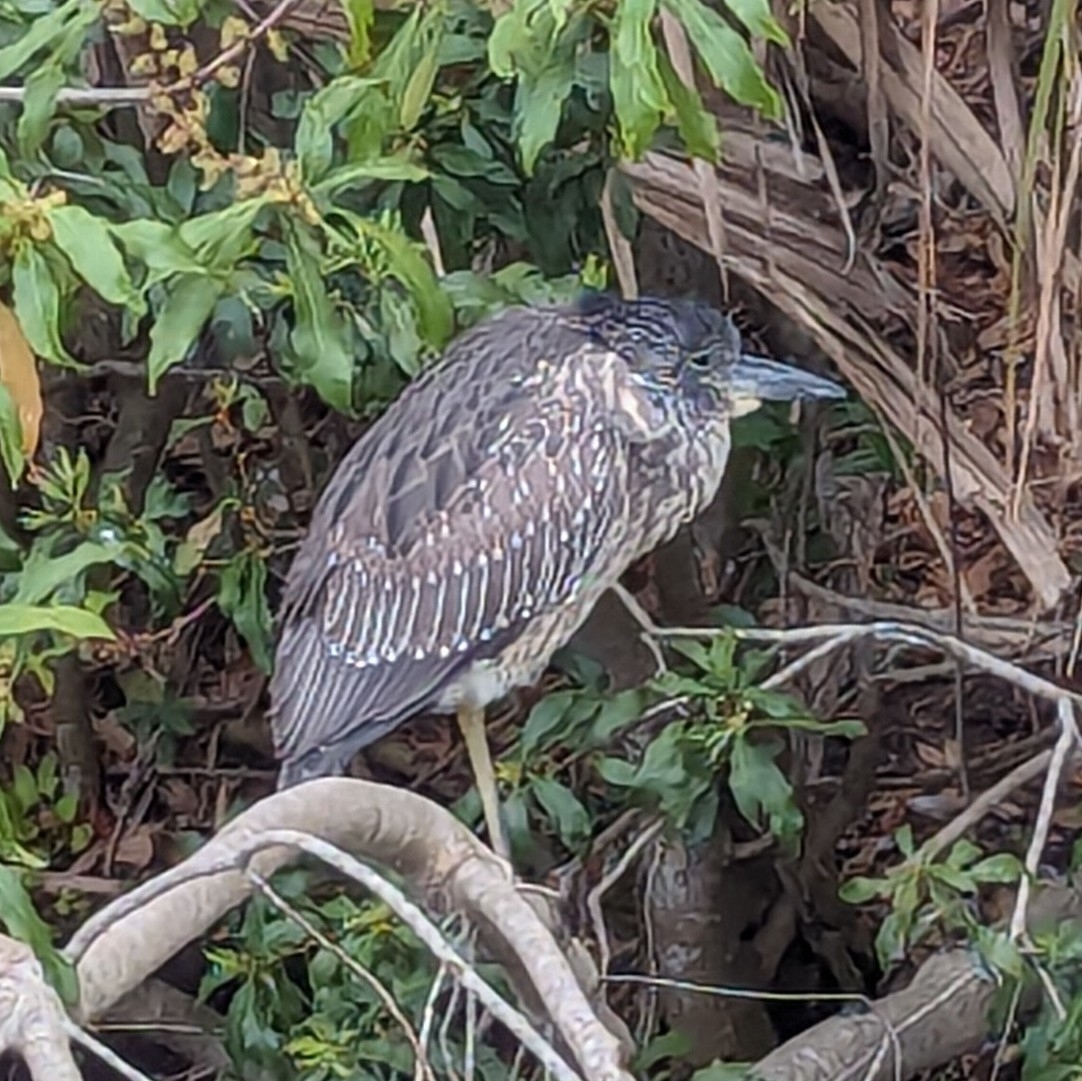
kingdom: Animalia
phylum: Chordata
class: Aves
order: Pelecaniformes
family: Ardeidae
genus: Nyctanassa
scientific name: Nyctanassa violacea
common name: Yellow-crowned night heron
